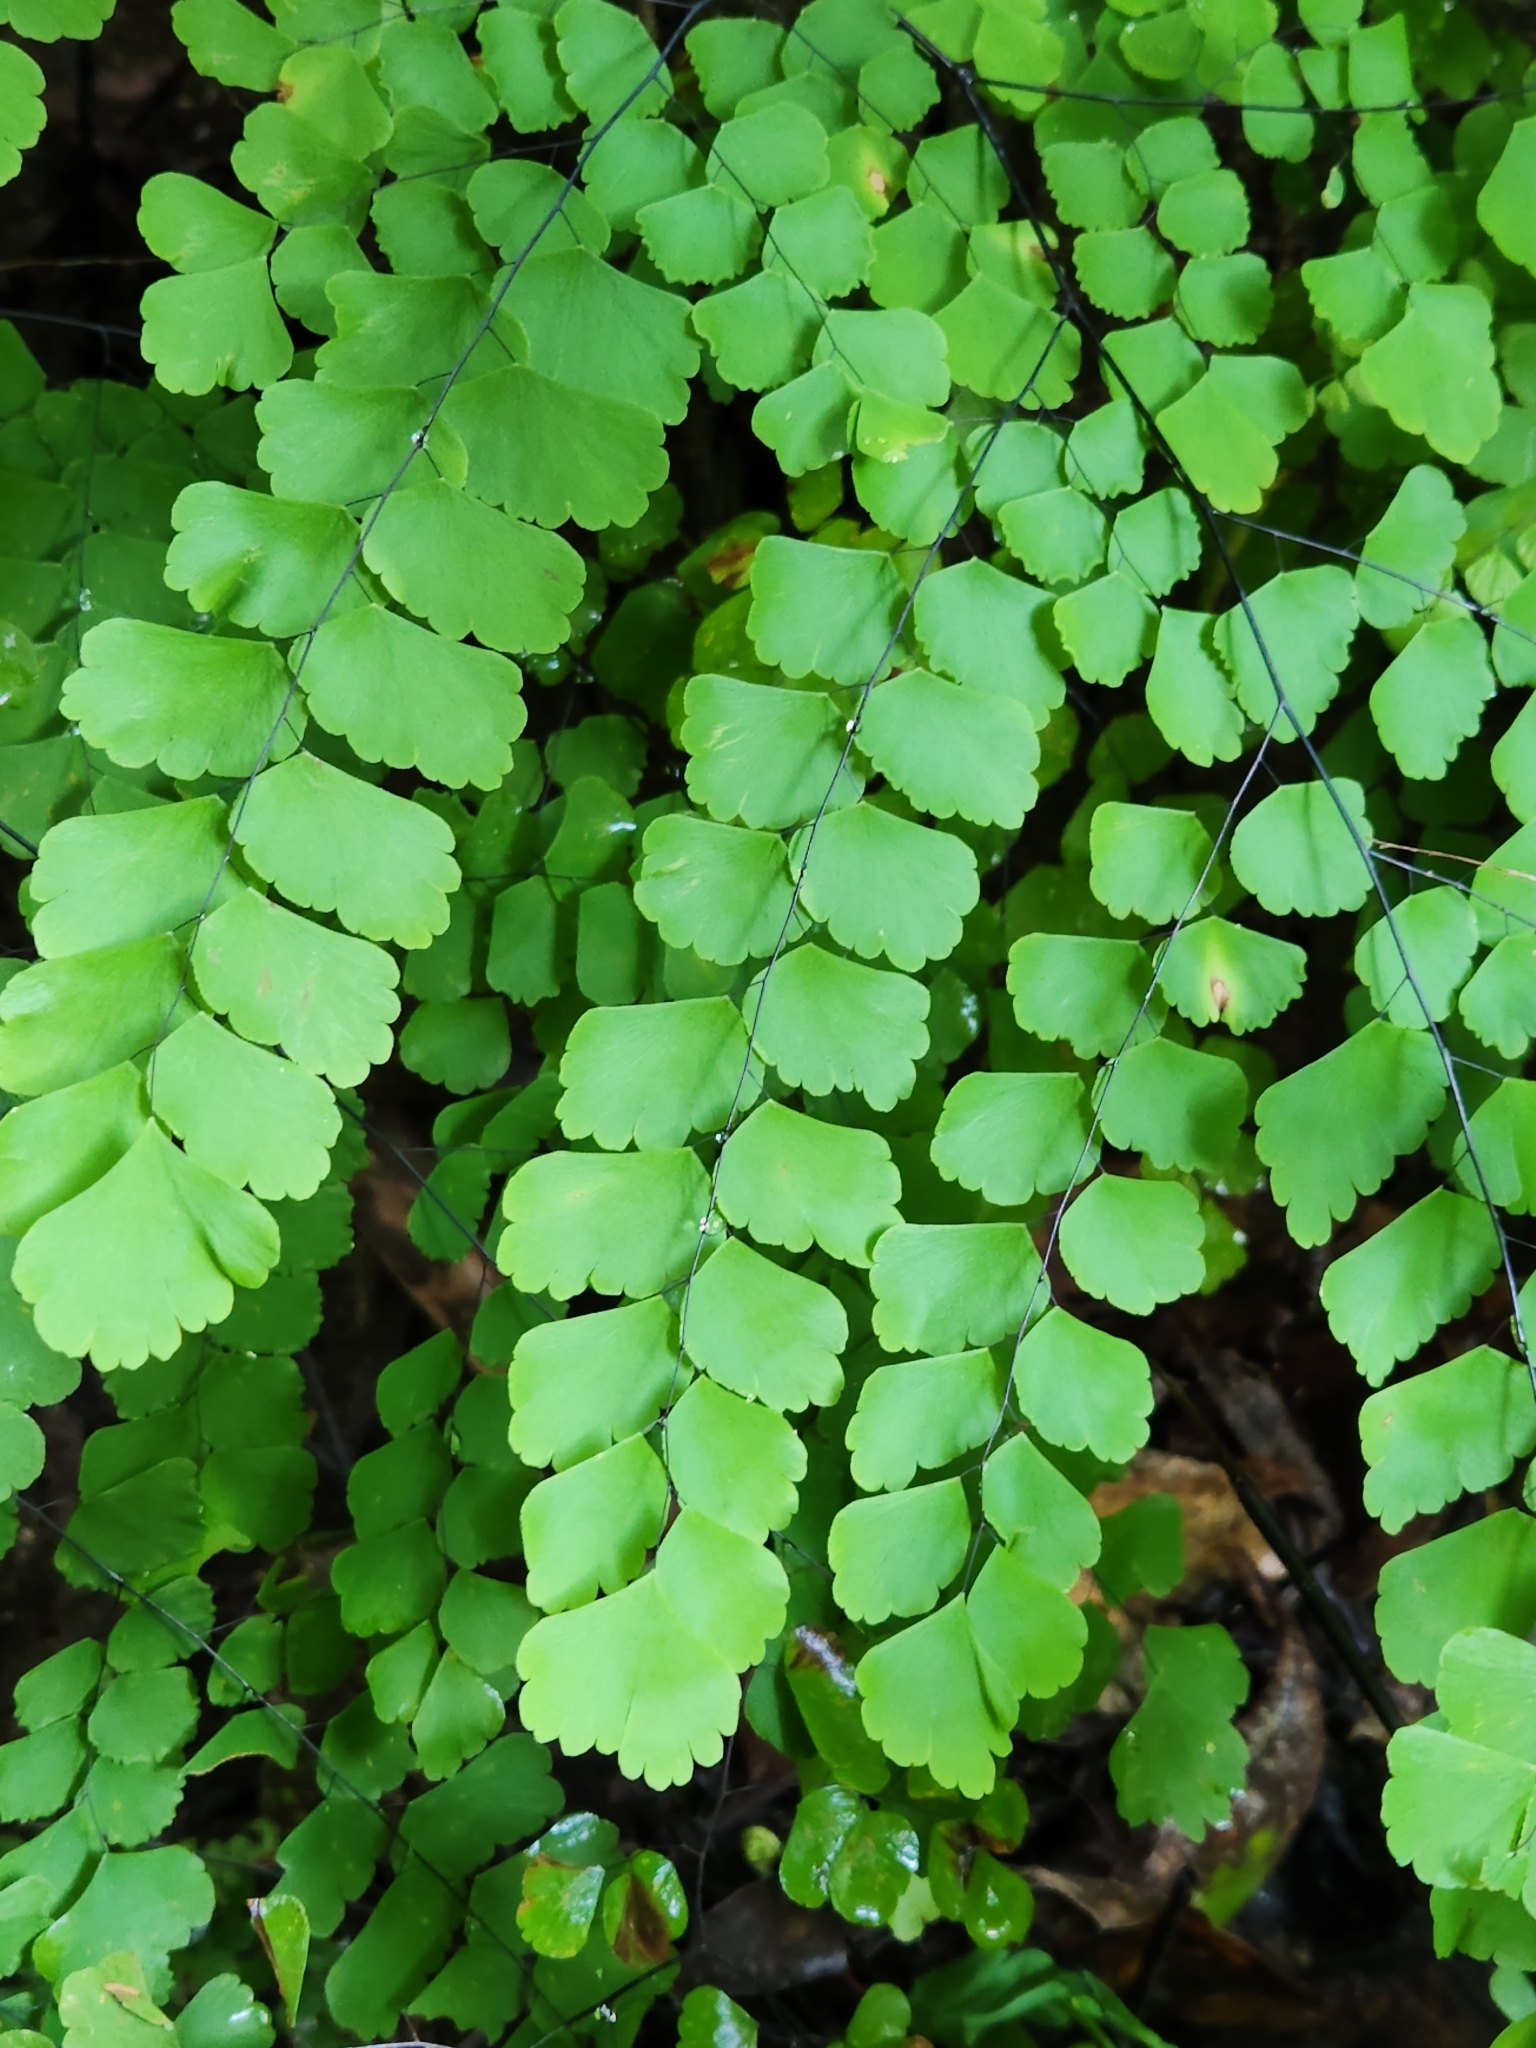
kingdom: Plantae
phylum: Tracheophyta
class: Polypodiopsida
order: Polypodiales
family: Pteridaceae
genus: Adiantum
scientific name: Adiantum amplum
